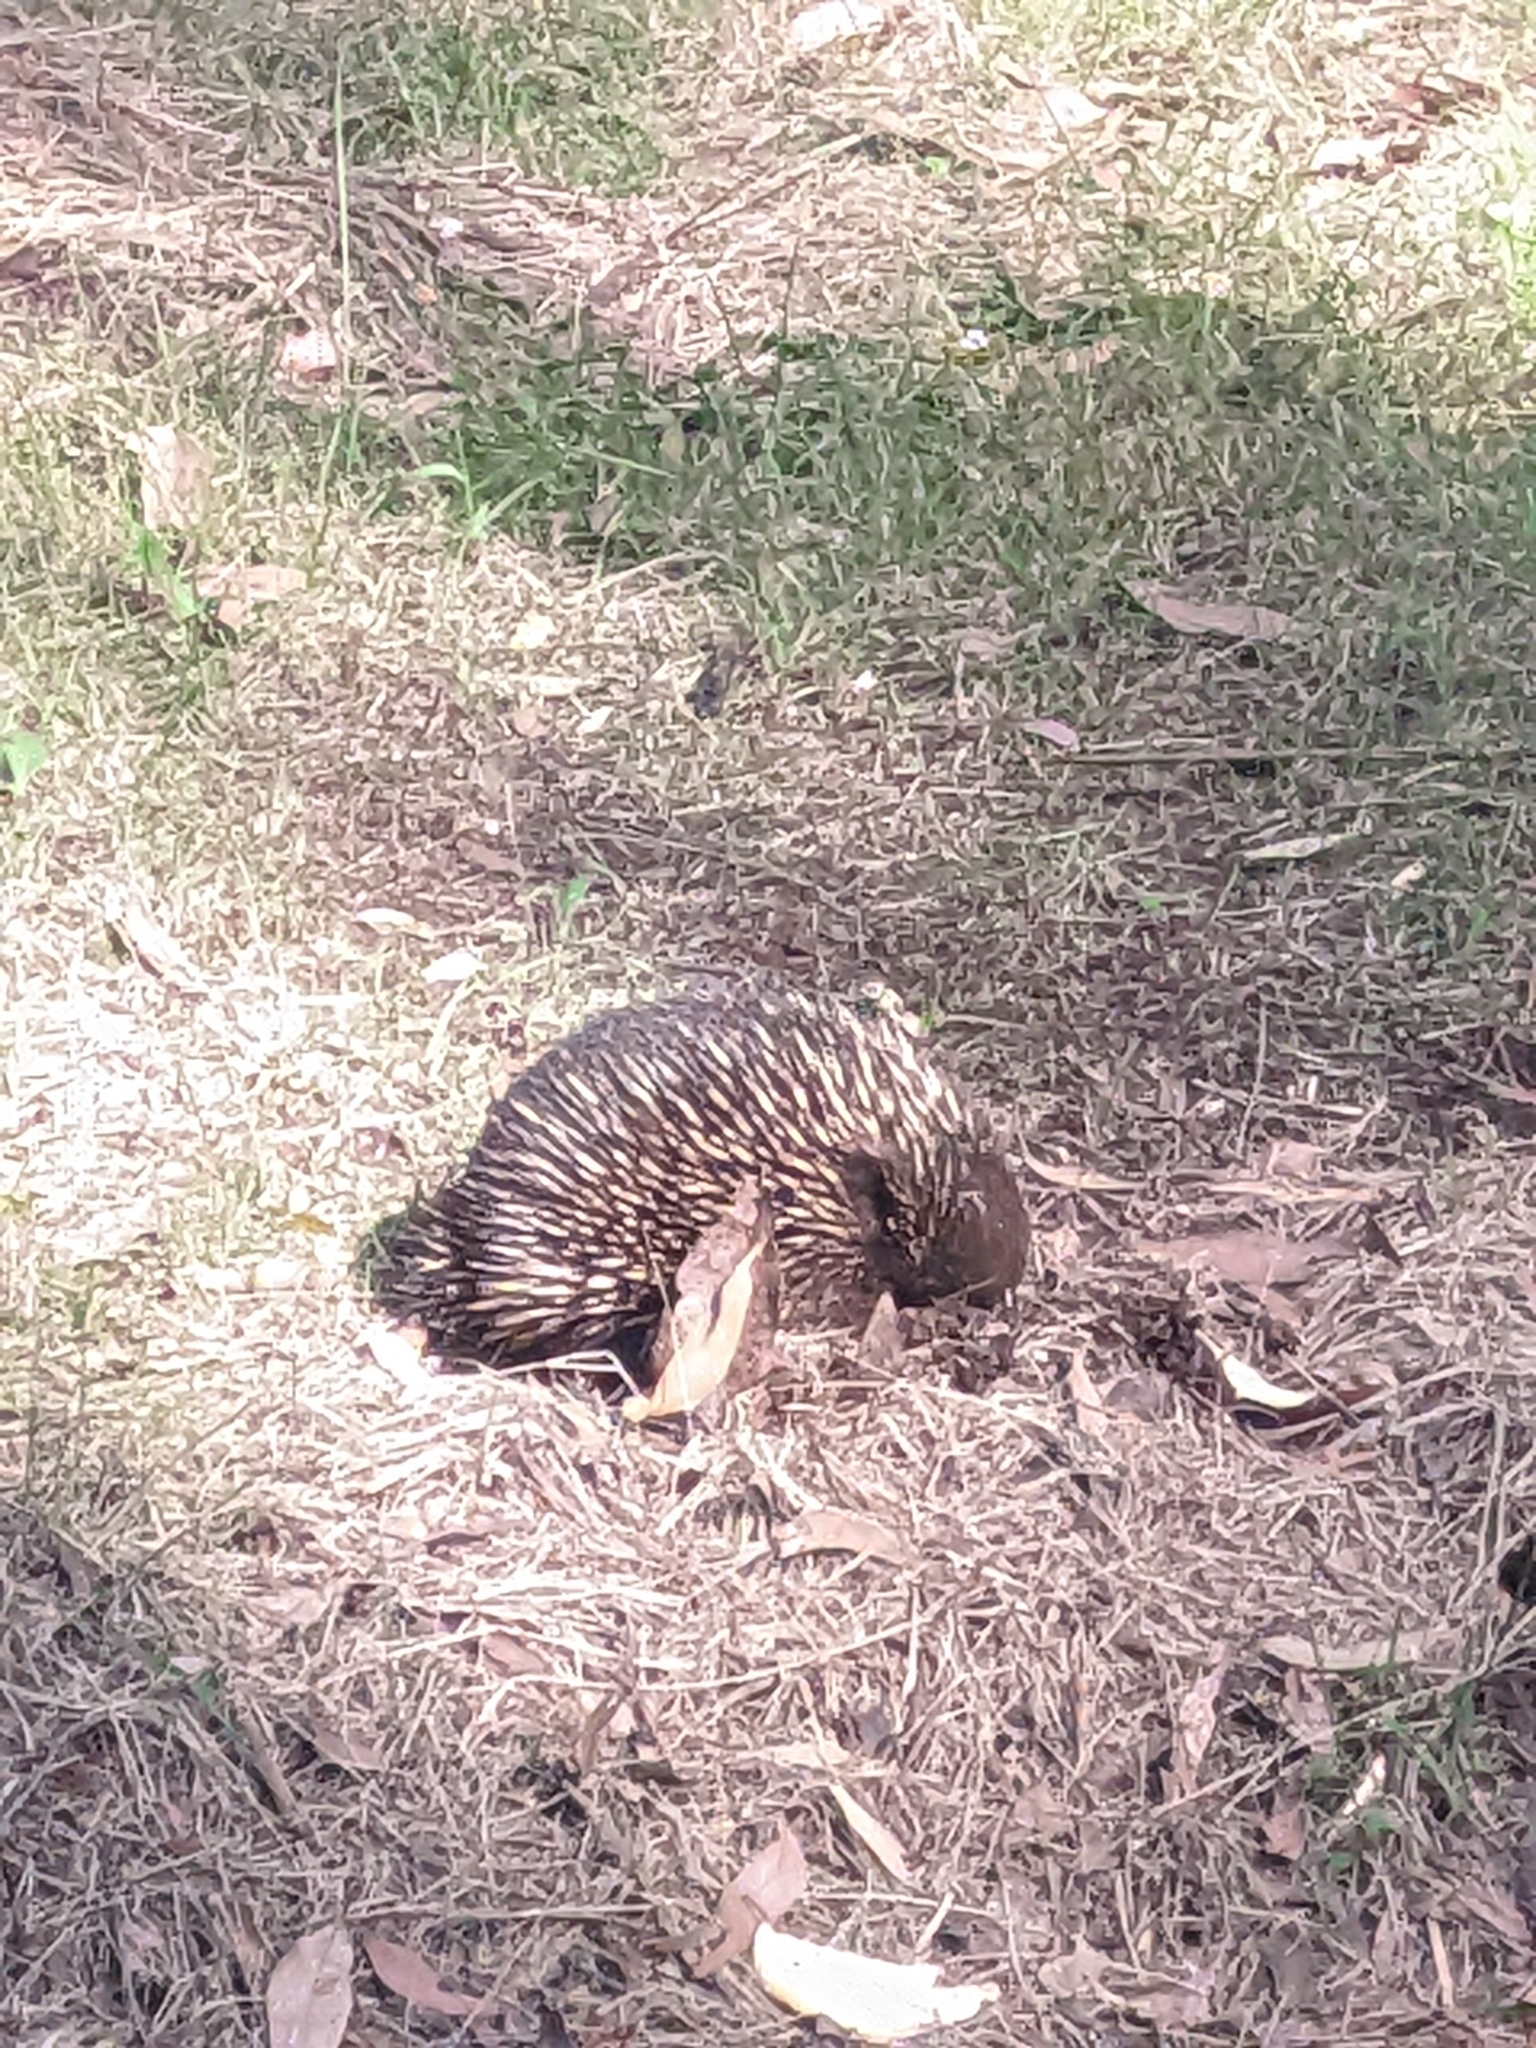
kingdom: Animalia
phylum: Chordata
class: Mammalia
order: Monotremata
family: Tachyglossidae
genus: Tachyglossus
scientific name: Tachyglossus aculeatus
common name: Short-beaked echidna
